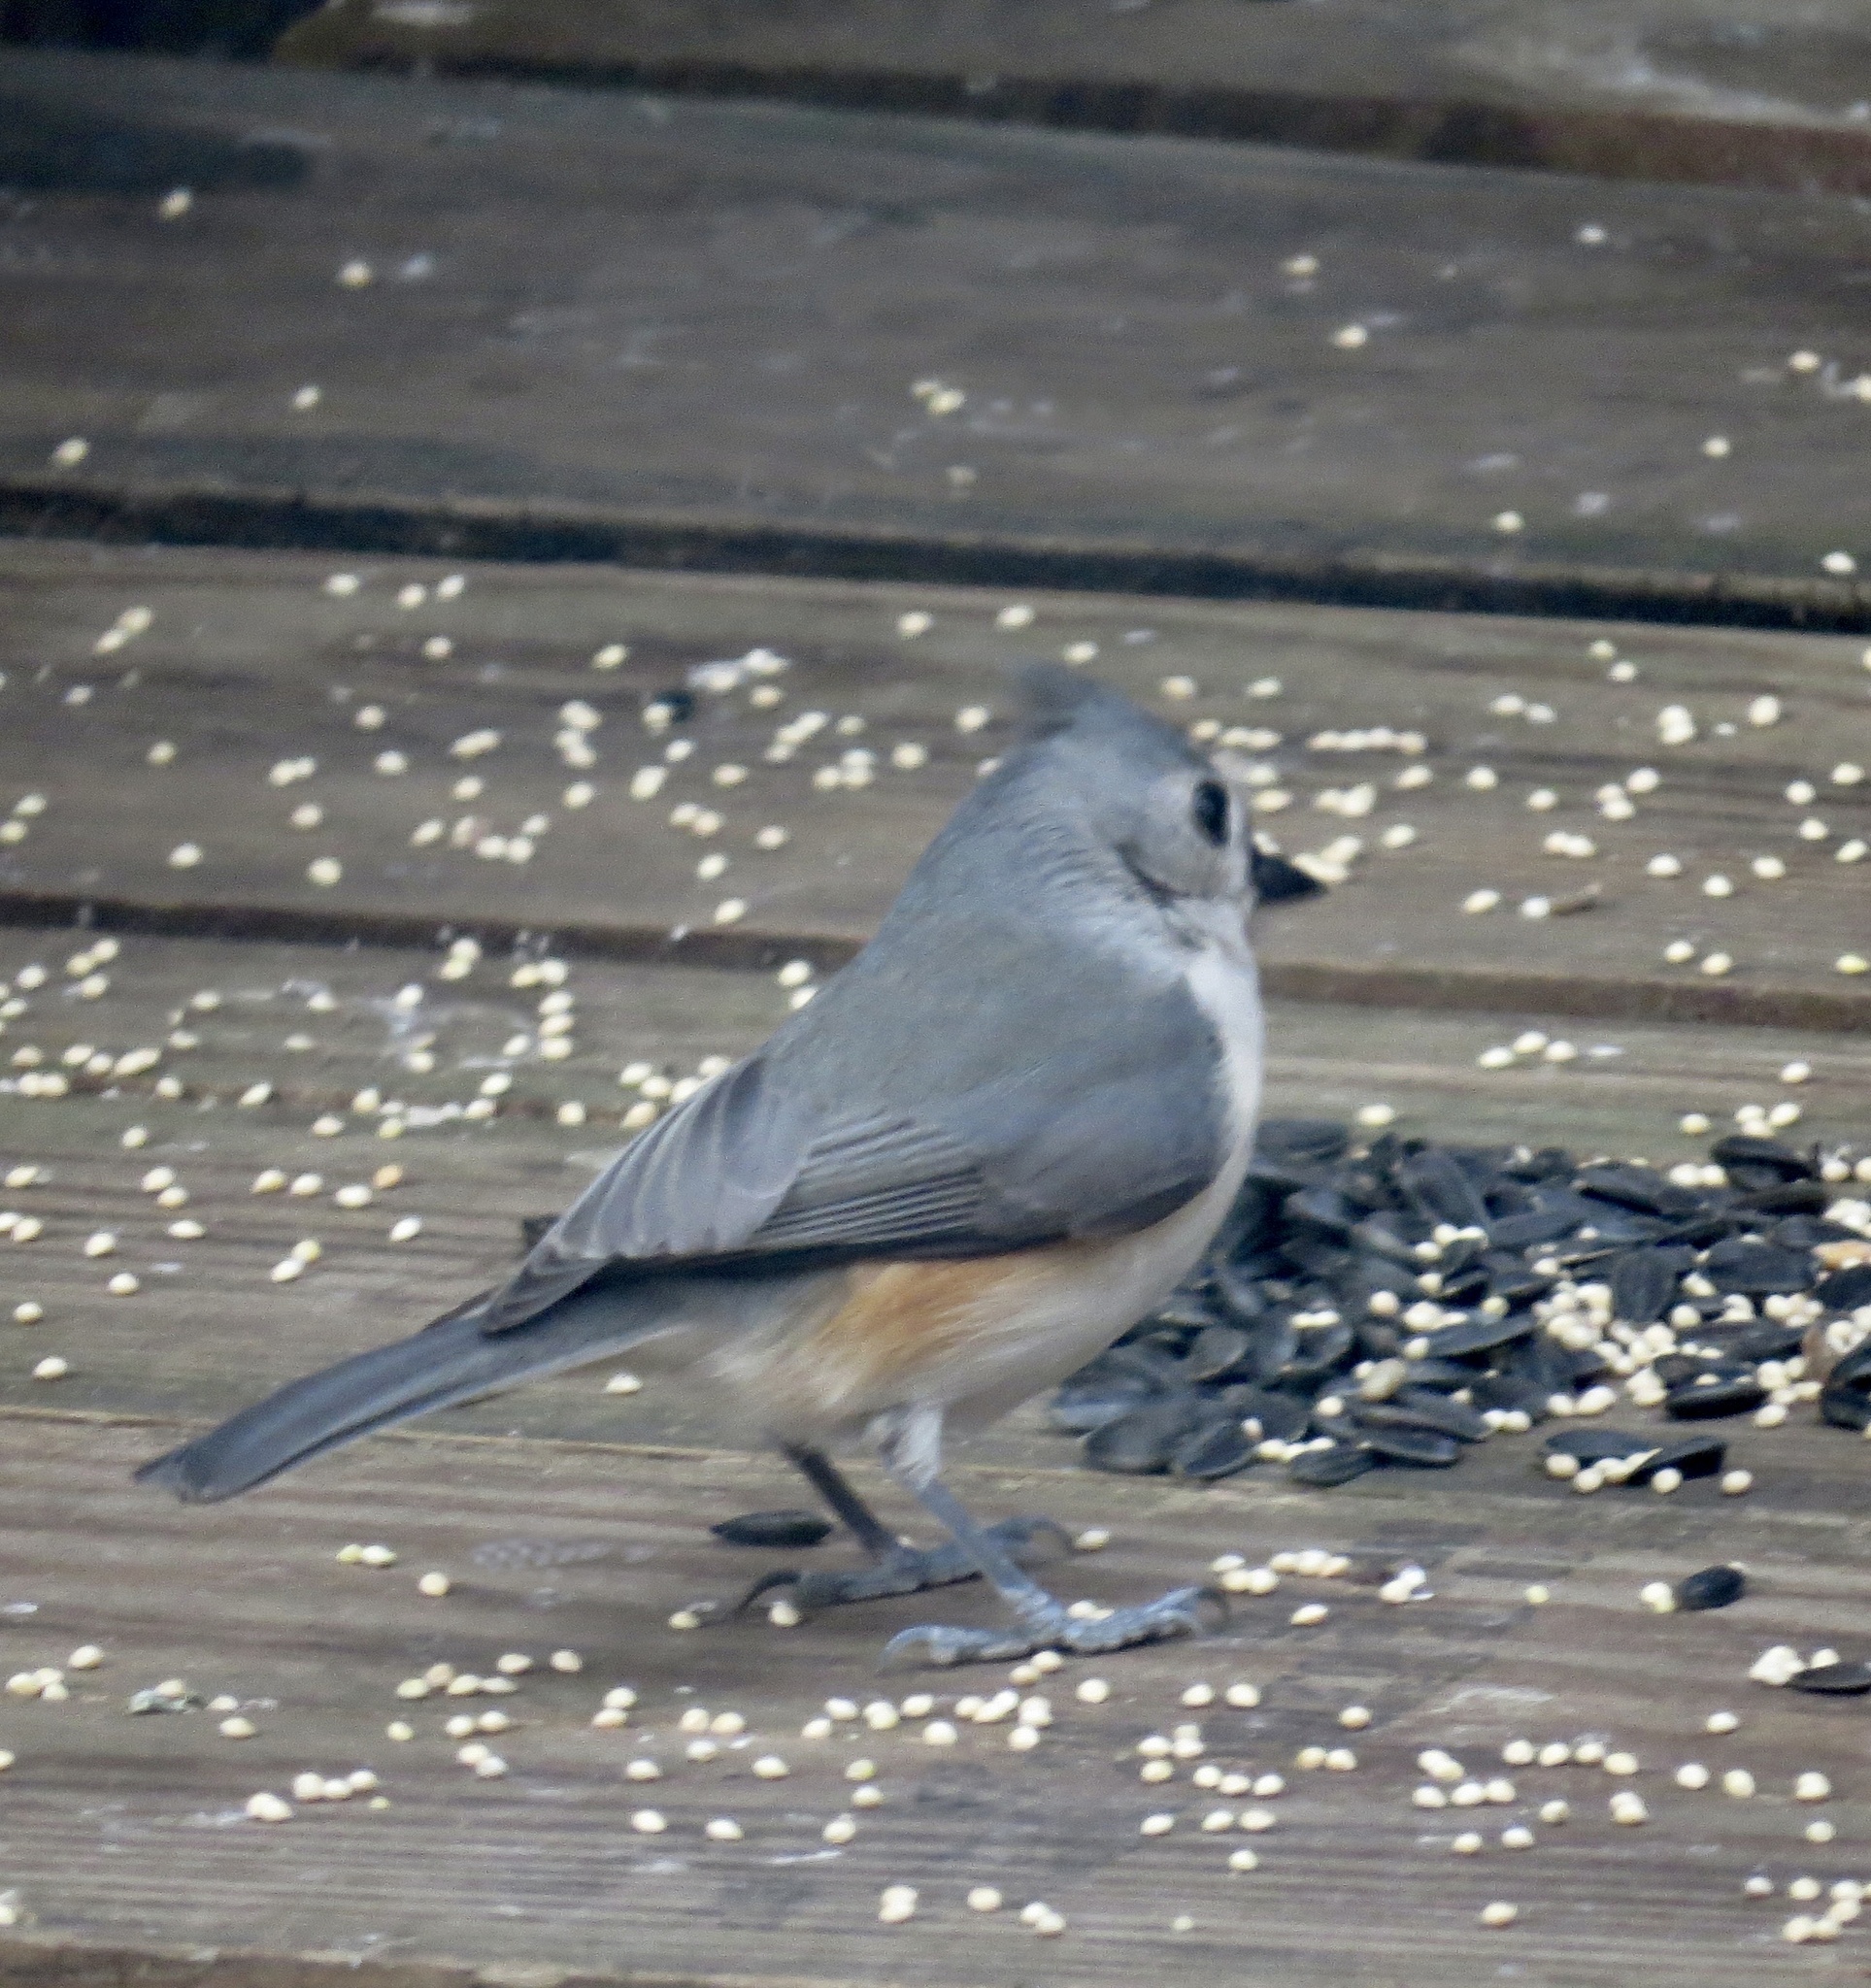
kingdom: Animalia
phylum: Chordata
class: Aves
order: Passeriformes
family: Paridae
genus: Baeolophus
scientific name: Baeolophus bicolor
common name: Tufted titmouse
